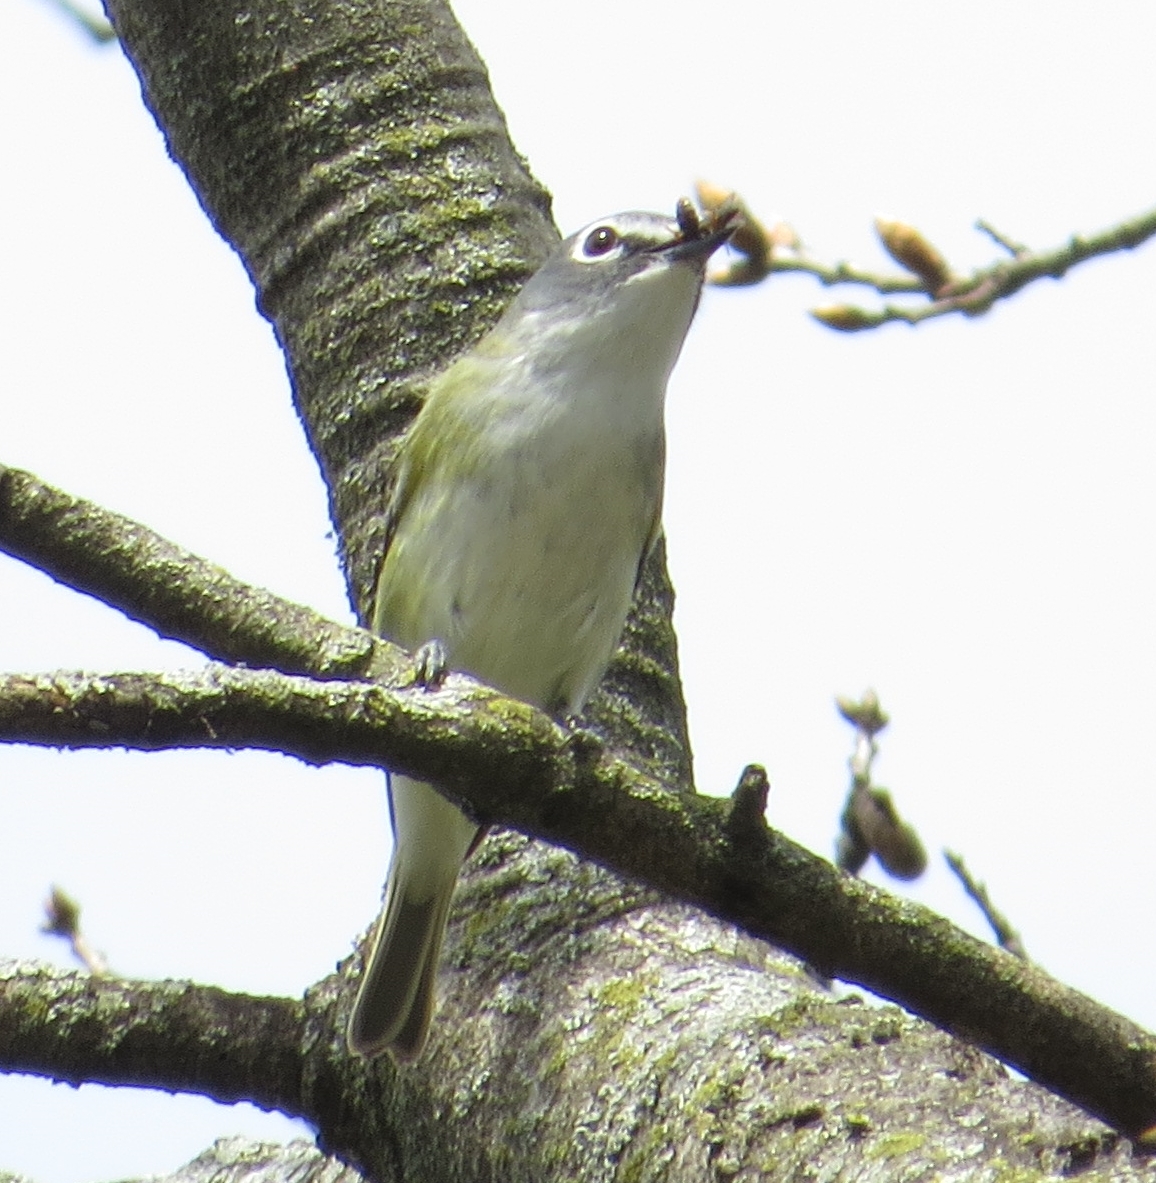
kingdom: Animalia
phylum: Chordata
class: Aves
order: Passeriformes
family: Vireonidae
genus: Vireo
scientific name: Vireo solitarius
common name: Blue-headed vireo
